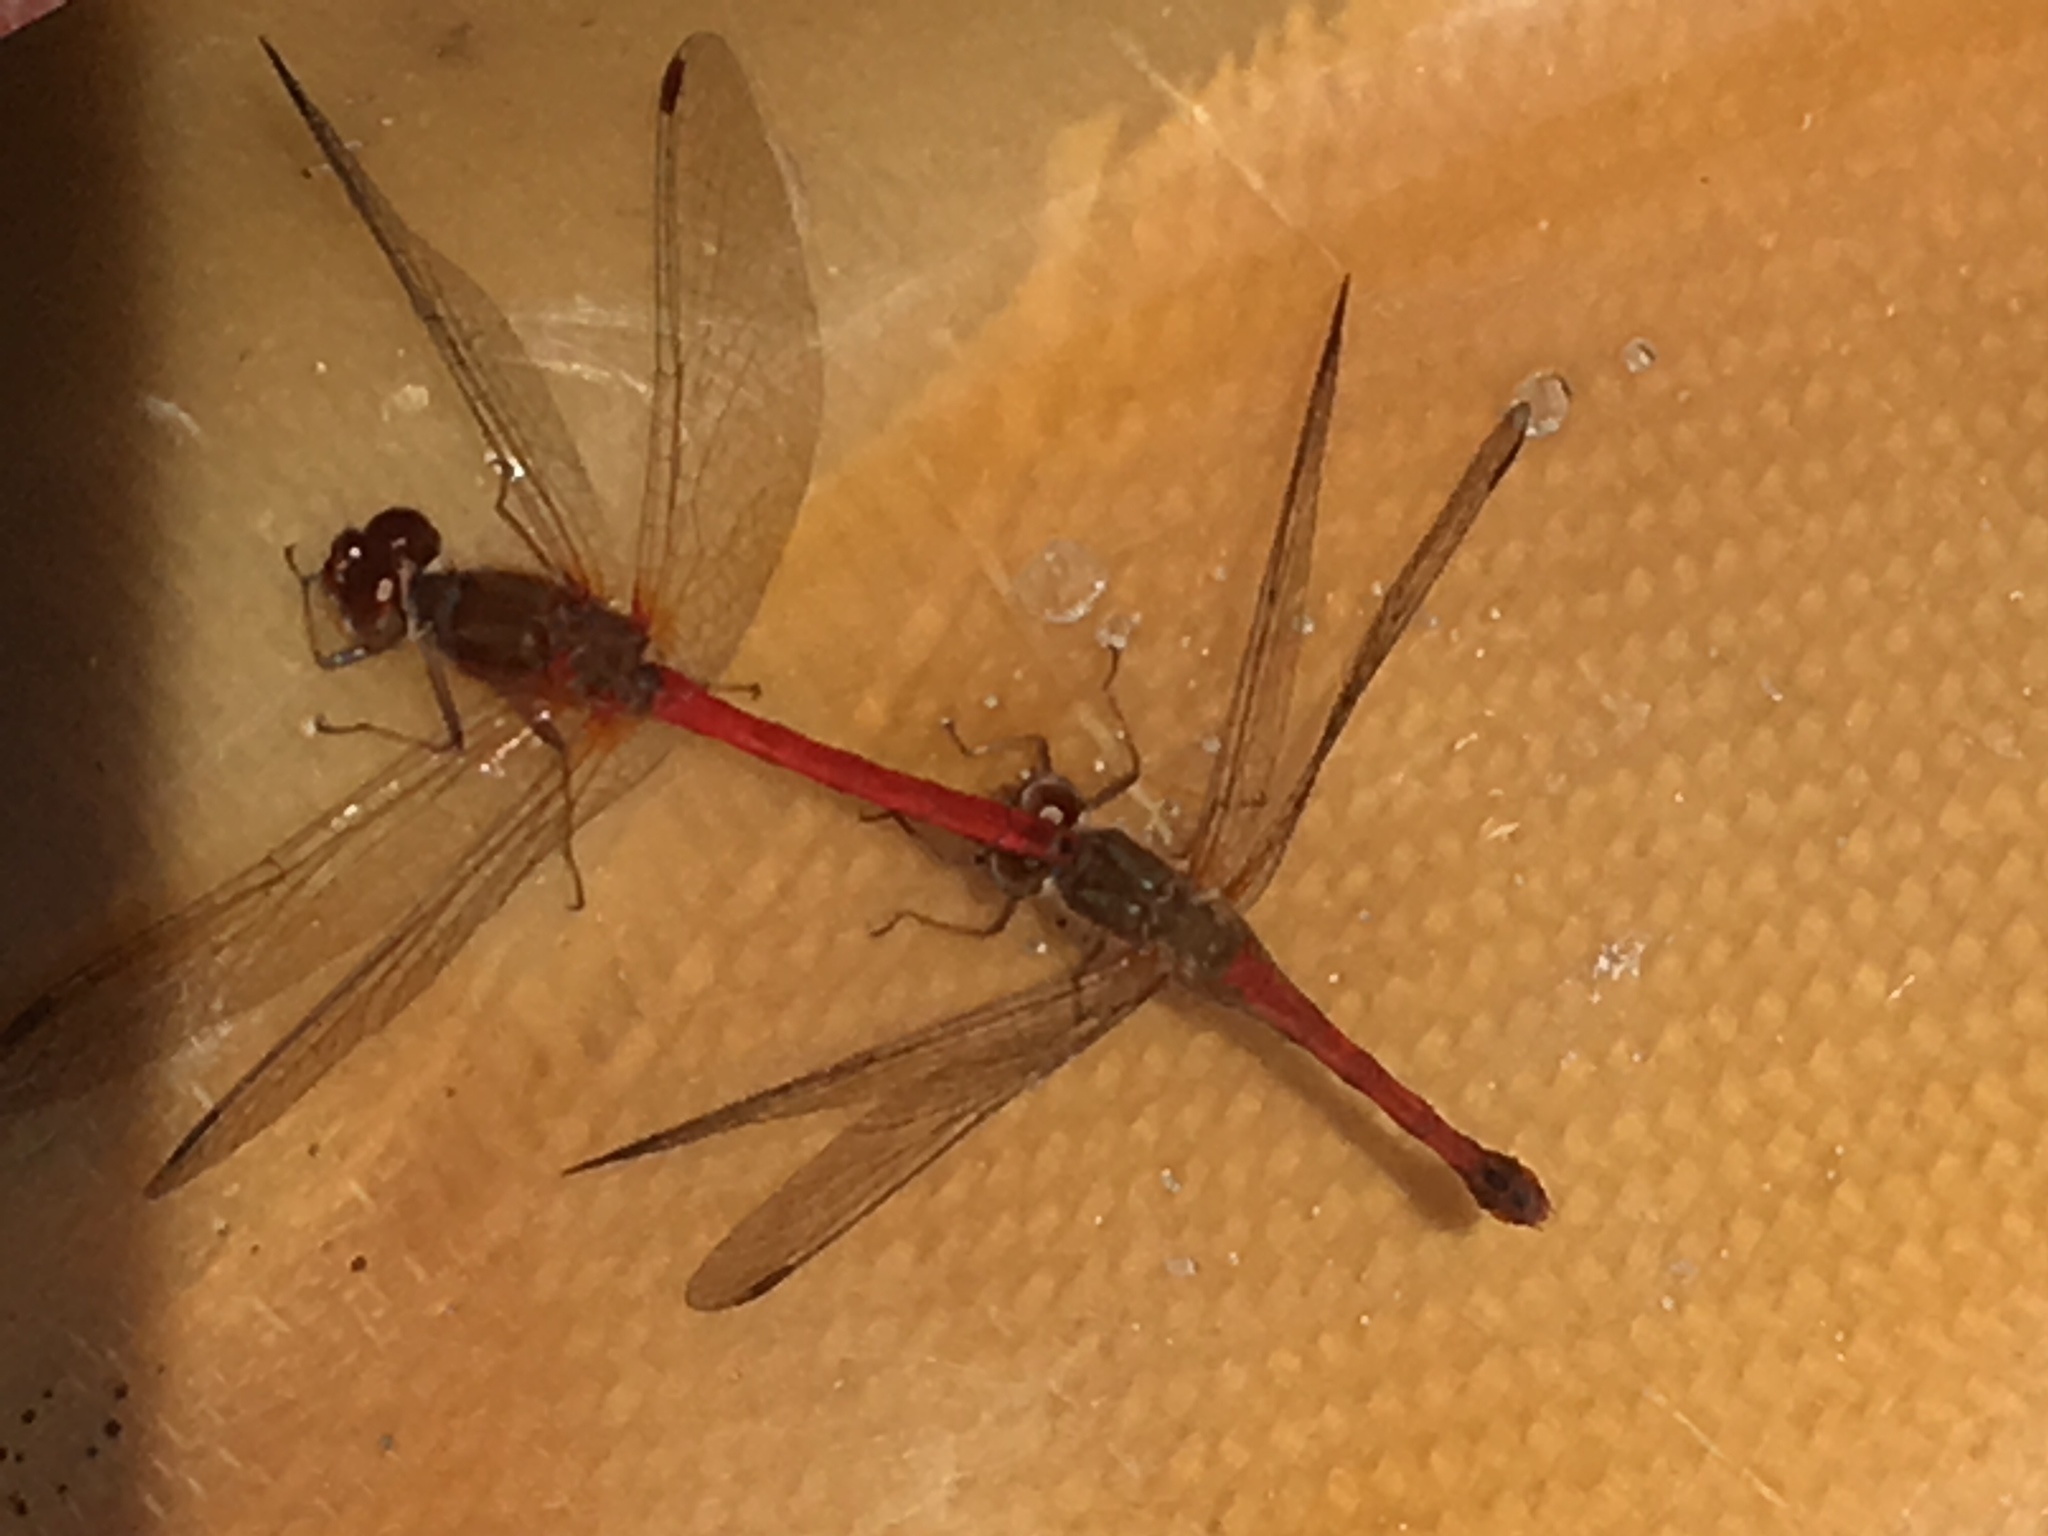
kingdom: Animalia
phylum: Arthropoda
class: Insecta
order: Odonata
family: Libellulidae
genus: Sympetrum
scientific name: Sympetrum vicinum
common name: Autumn meadowhawk
